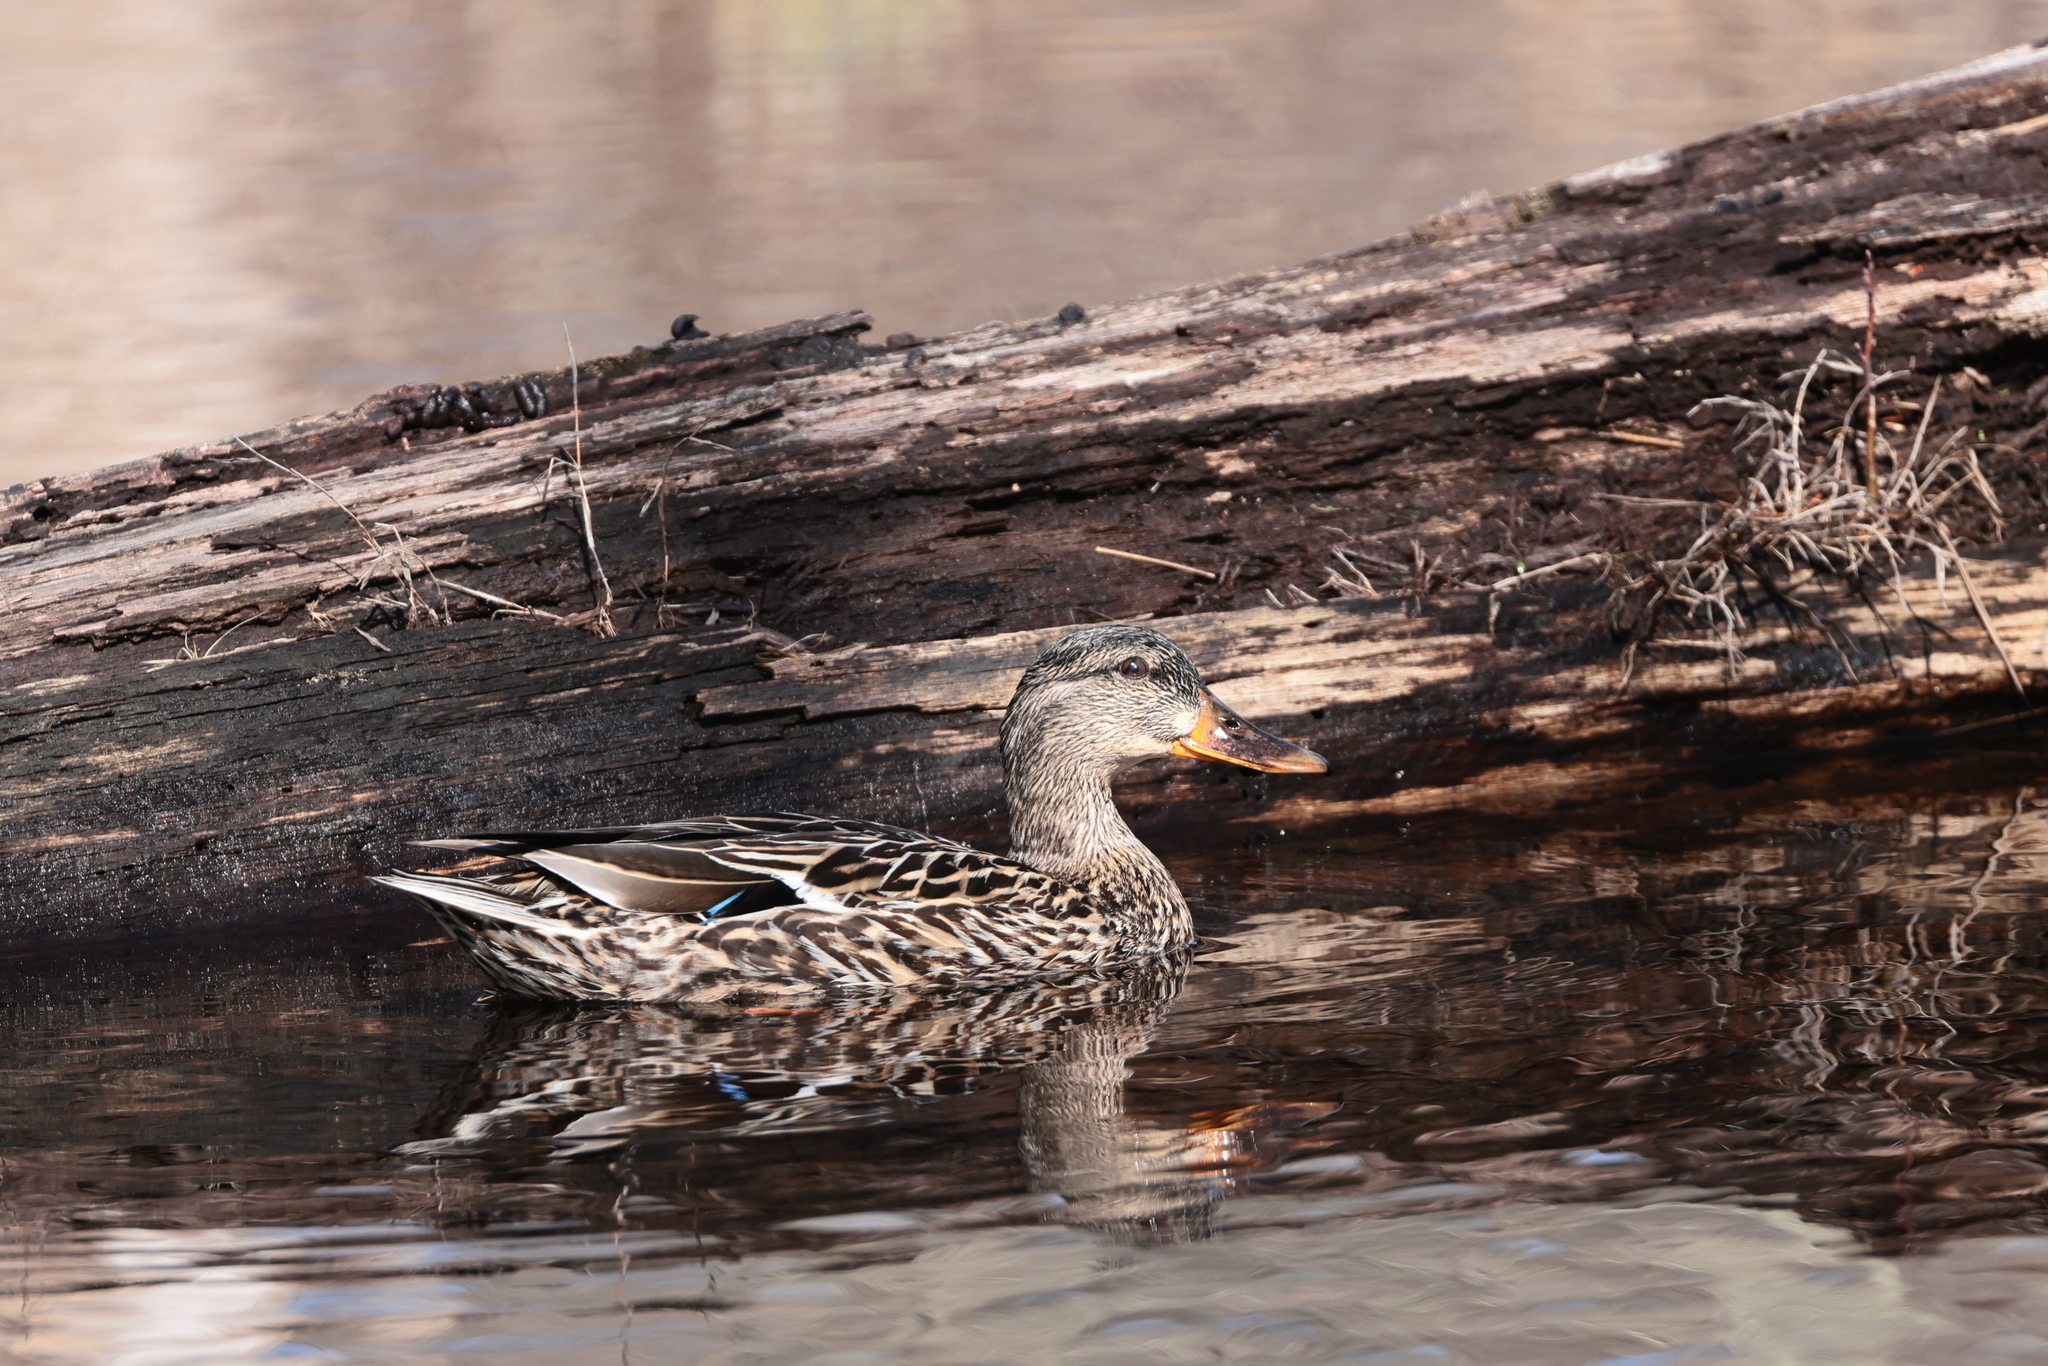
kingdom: Animalia
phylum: Chordata
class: Aves
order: Anseriformes
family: Anatidae
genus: Anas
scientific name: Anas platyrhynchos
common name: Mallard
